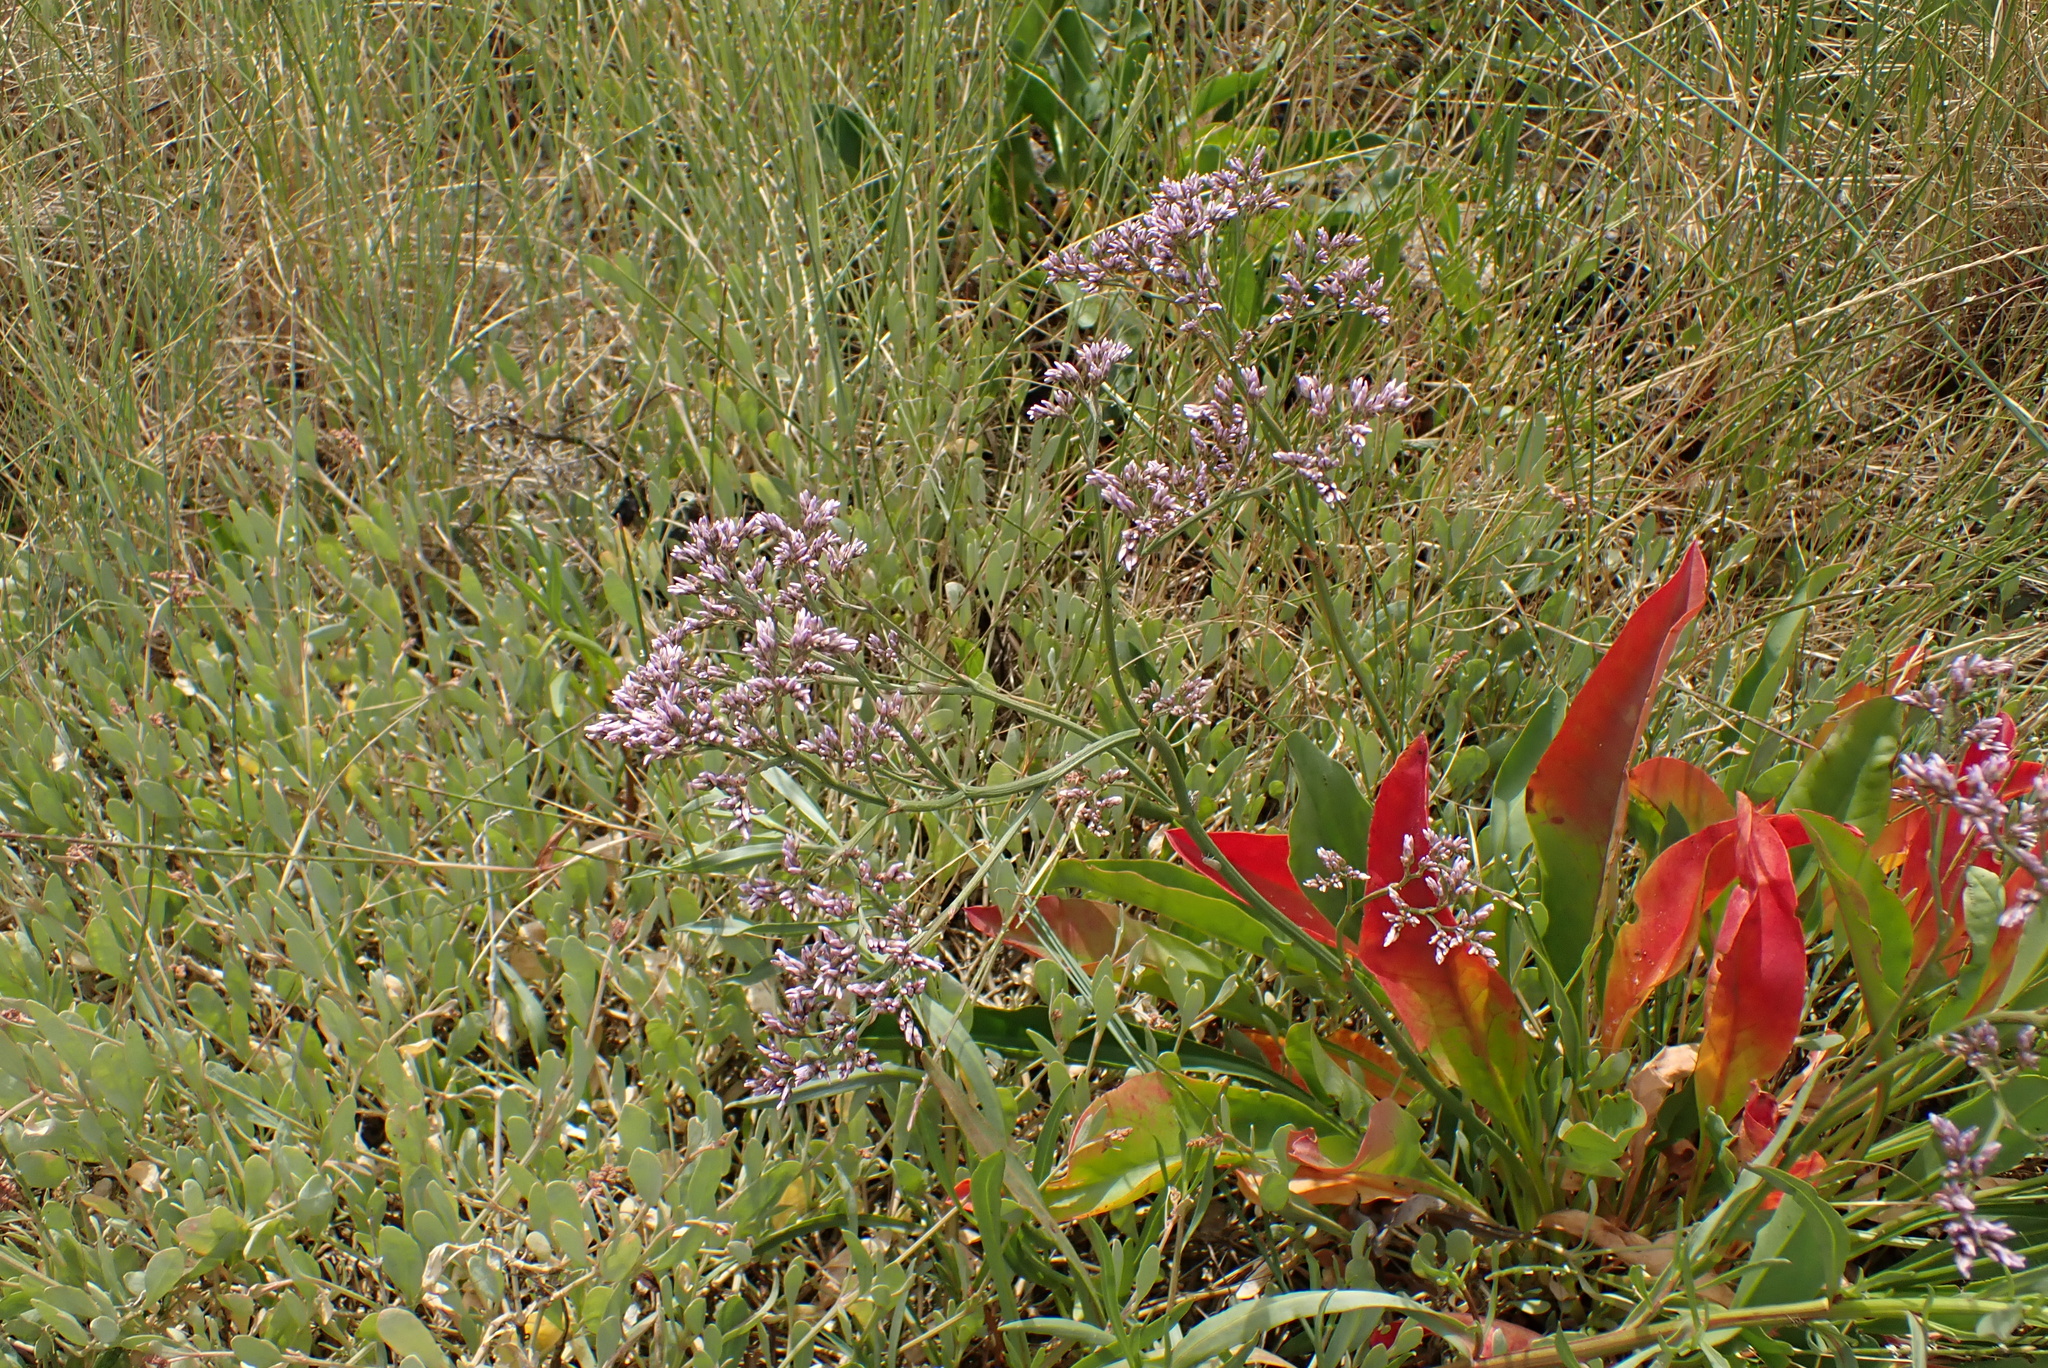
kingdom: Plantae
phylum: Tracheophyta
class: Magnoliopsida
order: Caryophyllales
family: Plumbaginaceae
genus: Limonium
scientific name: Limonium vulgare
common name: Common sea-lavender
